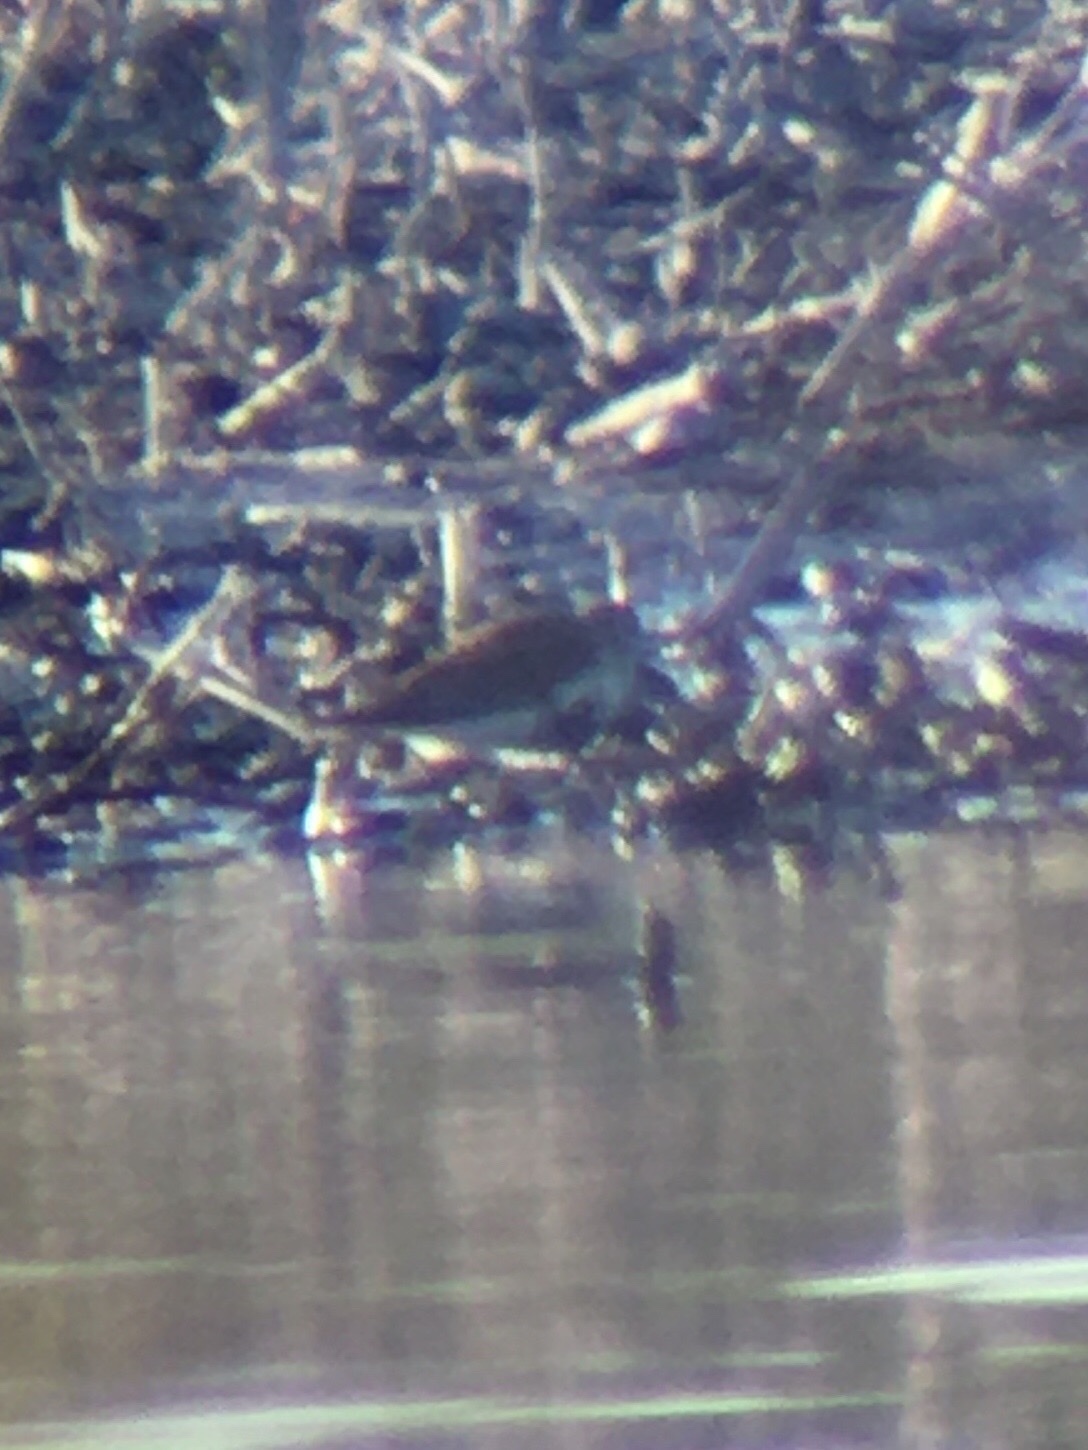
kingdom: Animalia
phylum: Chordata
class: Aves
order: Charadriiformes
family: Scolopacidae
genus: Calidris
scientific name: Calidris alpina
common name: Dunlin
